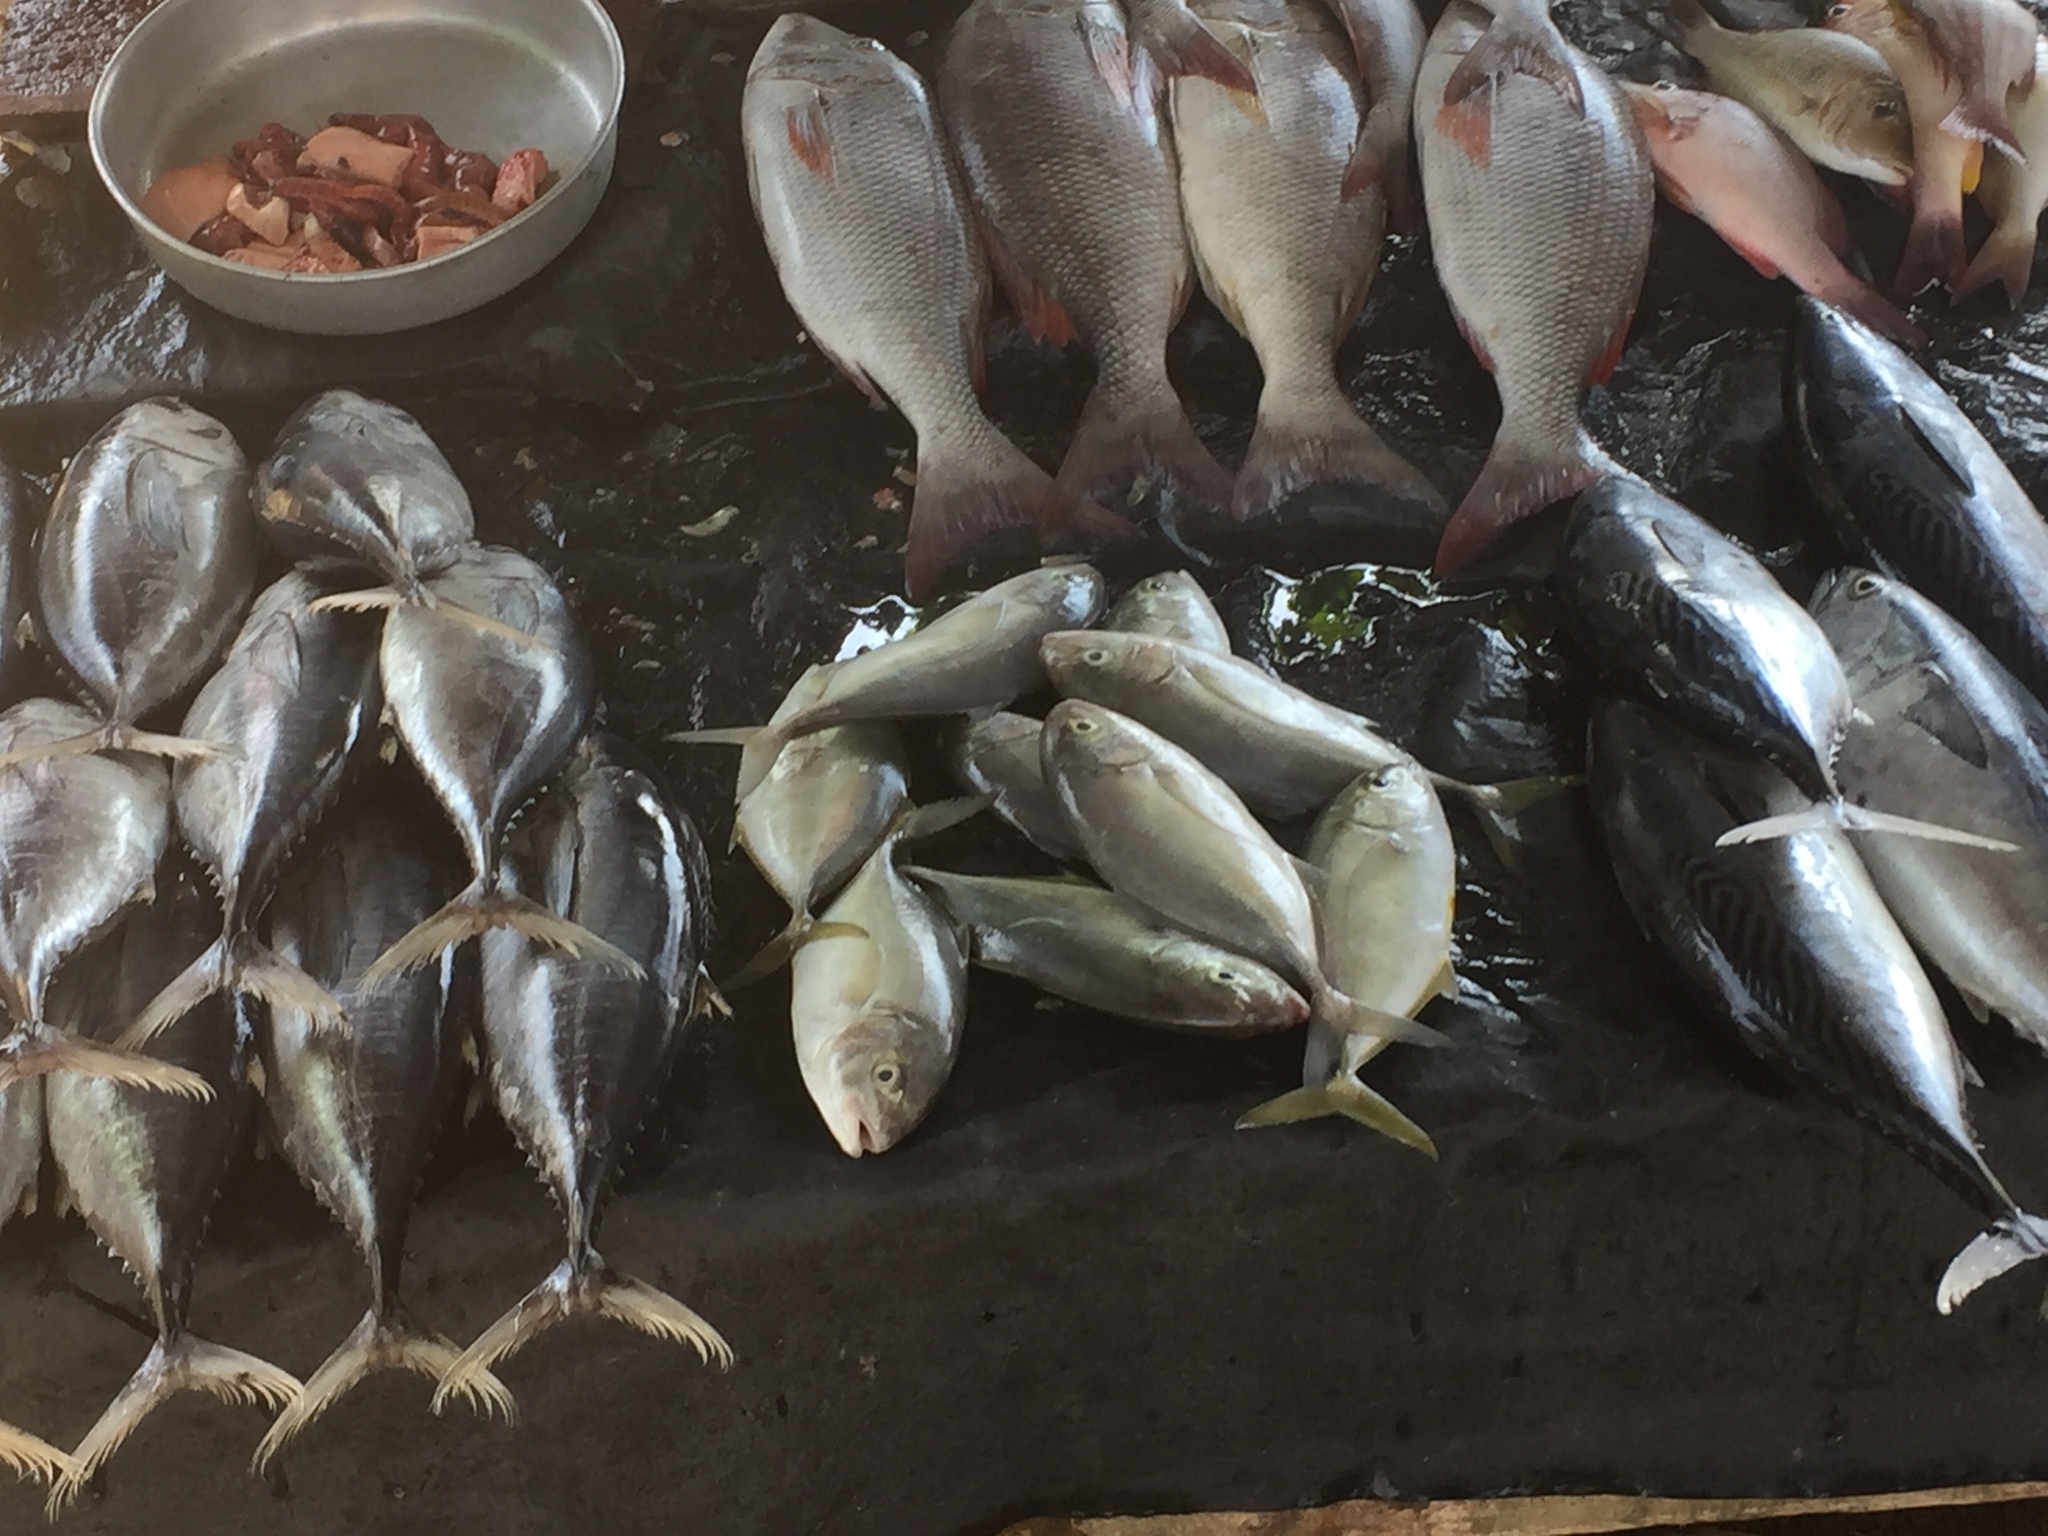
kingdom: Animalia
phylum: Chordata
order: Perciformes
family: Scombridae
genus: Euthynnus
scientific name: Euthynnus affinis
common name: Mackerel tuna
